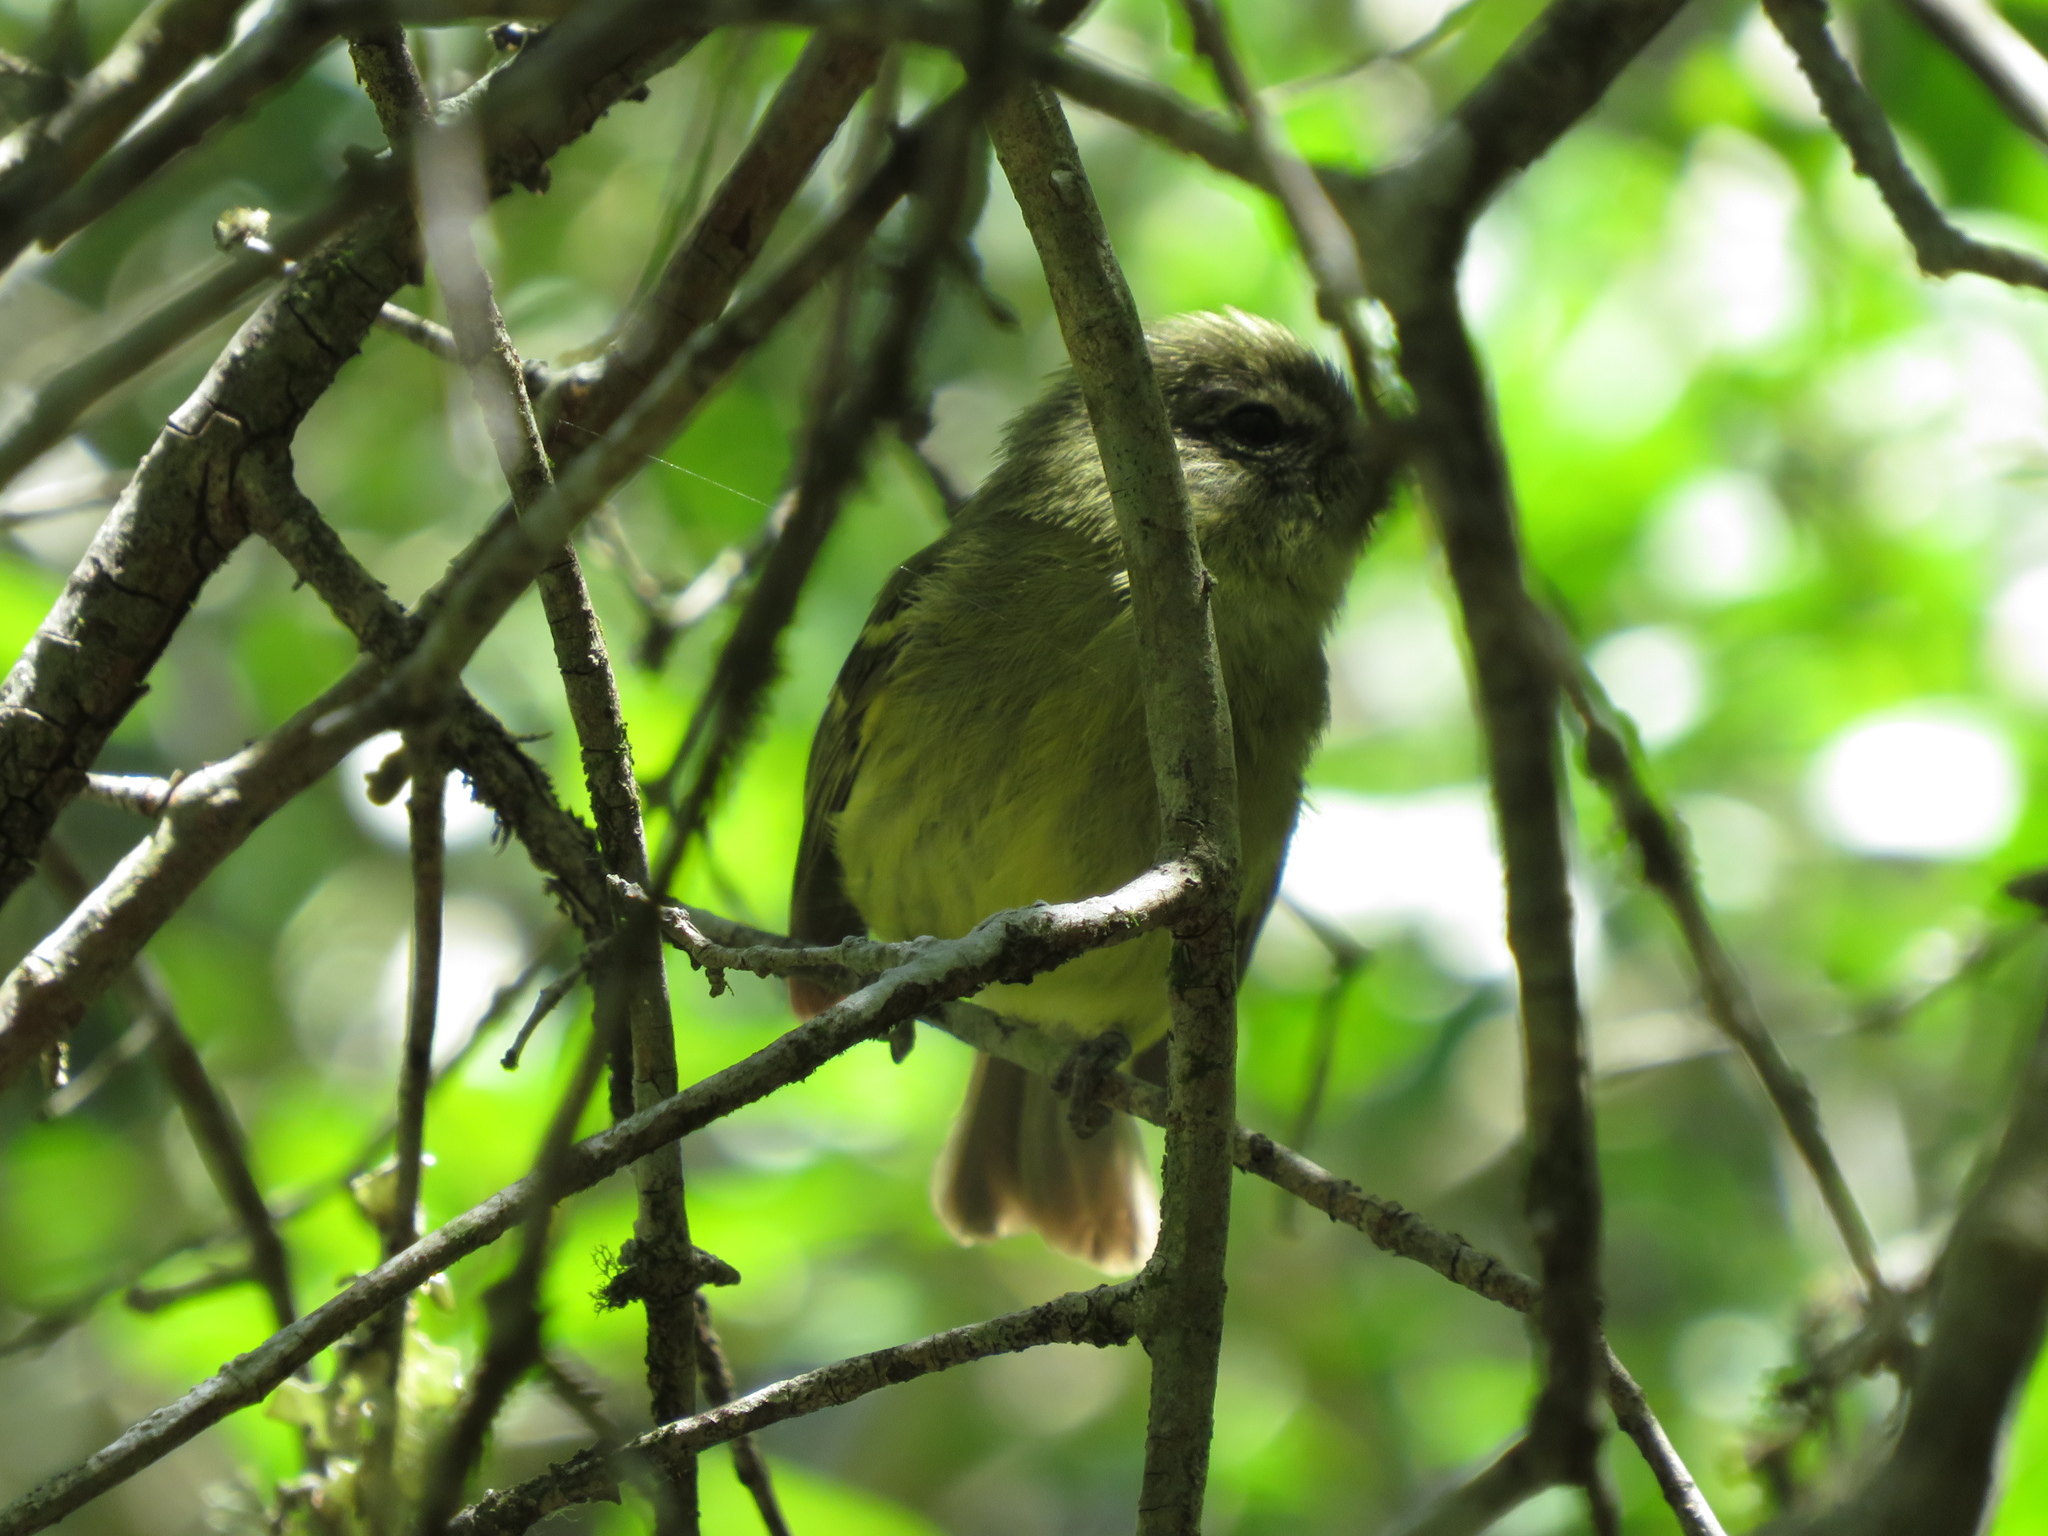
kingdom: Animalia
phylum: Chordata
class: Aves
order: Passeriformes
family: Tyrannidae
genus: Phylloscartes
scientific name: Phylloscartes ventralis
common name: Mottle-cheeked tyrannulet
